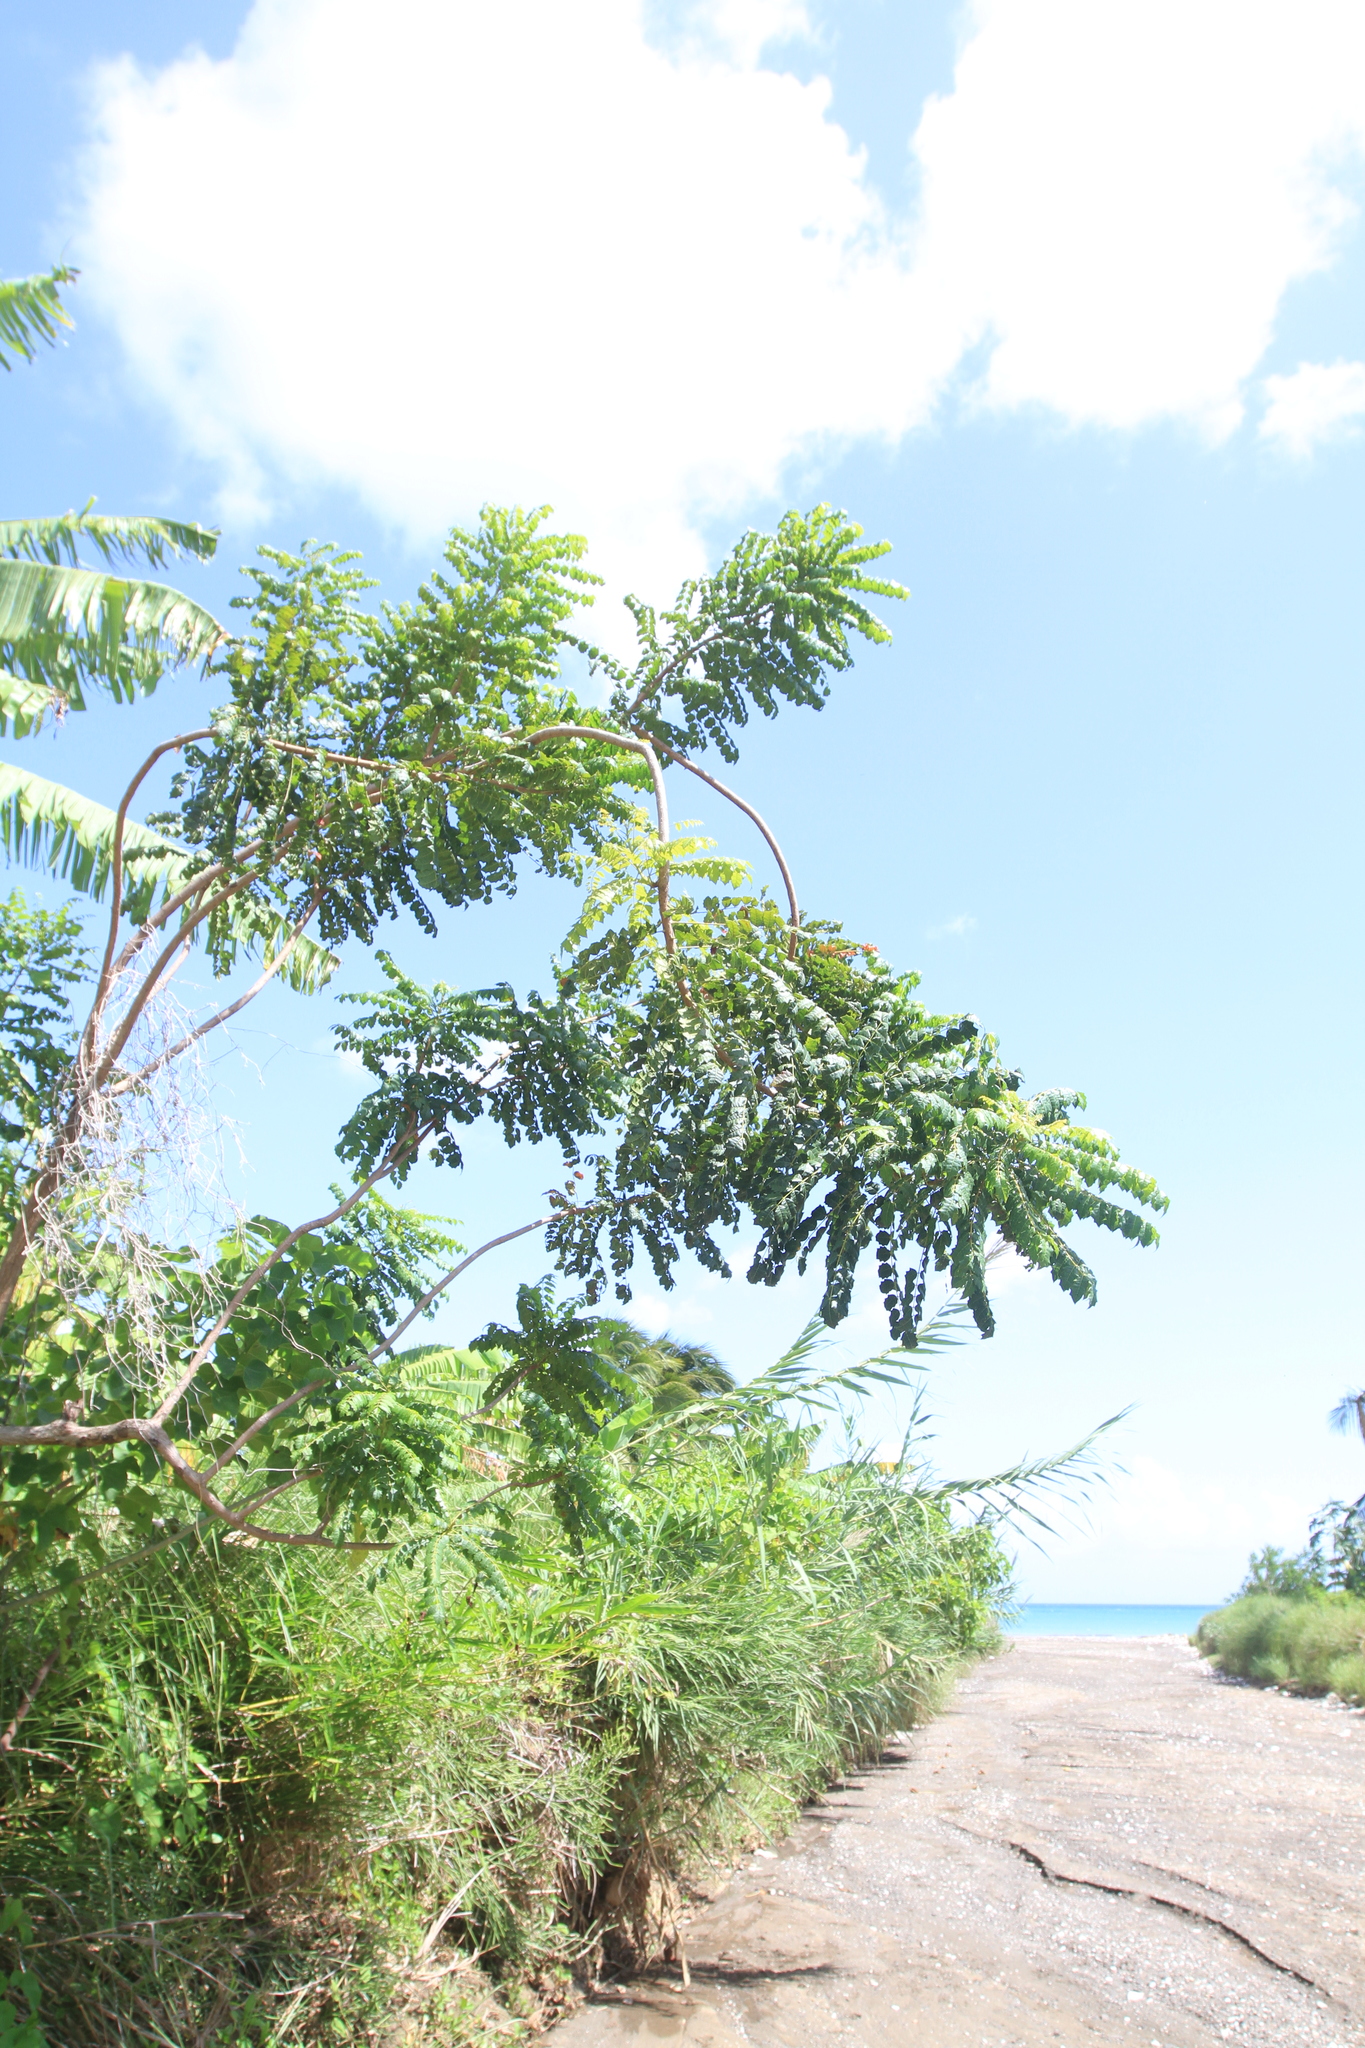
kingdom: Plantae
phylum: Tracheophyta
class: Magnoliopsida
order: Sapindales
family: Anacardiaceae
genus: Comocladia
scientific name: Comocladia gracilis
